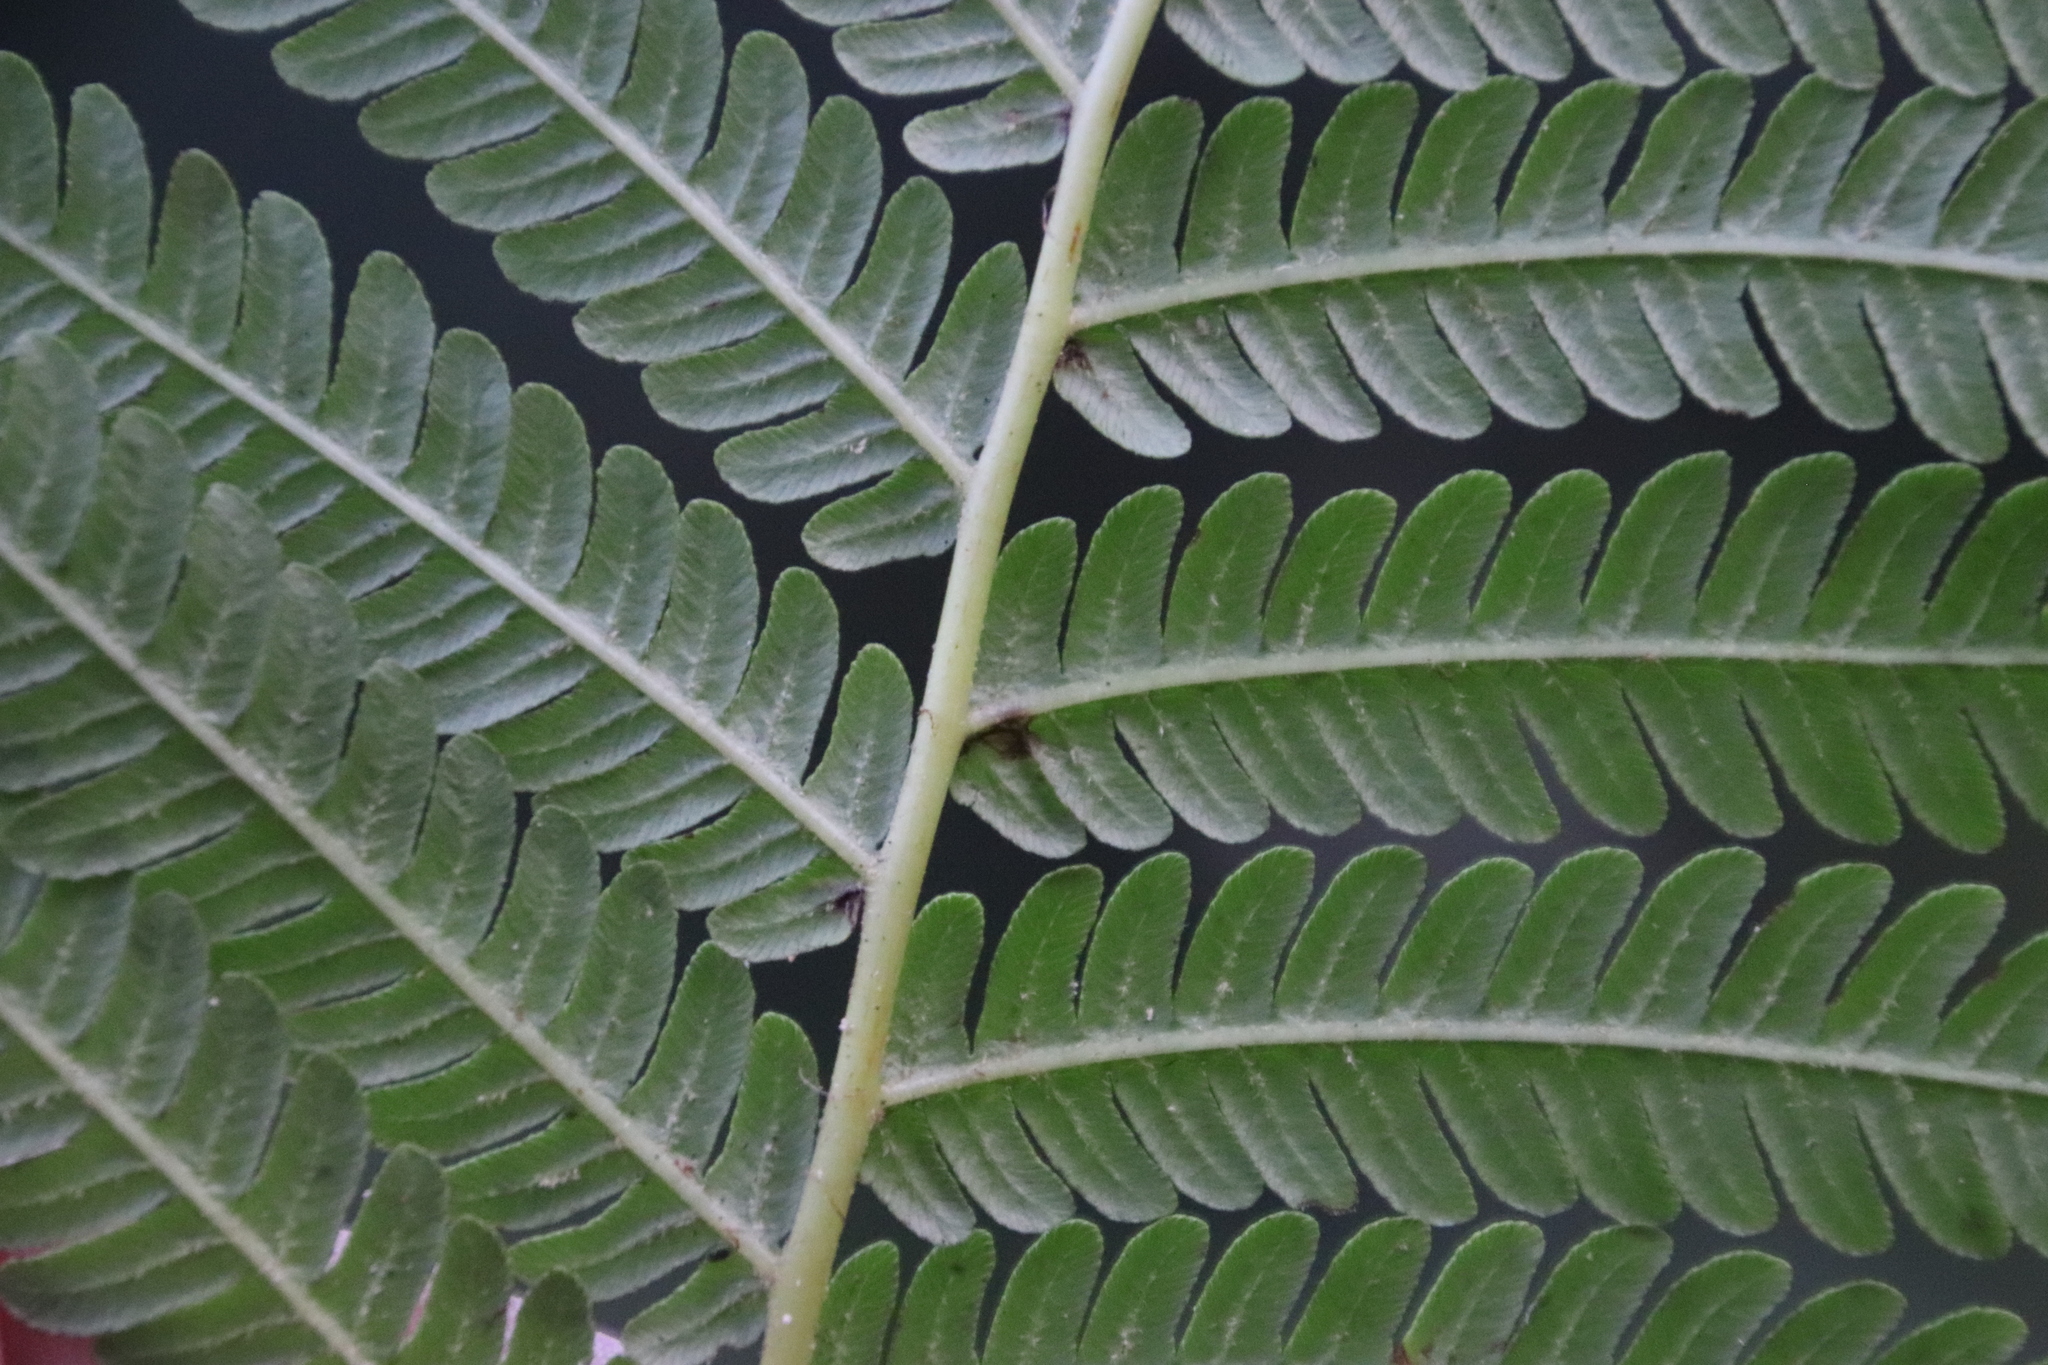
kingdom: Plantae
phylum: Tracheophyta
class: Polypodiopsida
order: Cyatheales
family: Cyatheaceae
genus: Sphaeropteris
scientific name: Sphaeropteris cooperi
